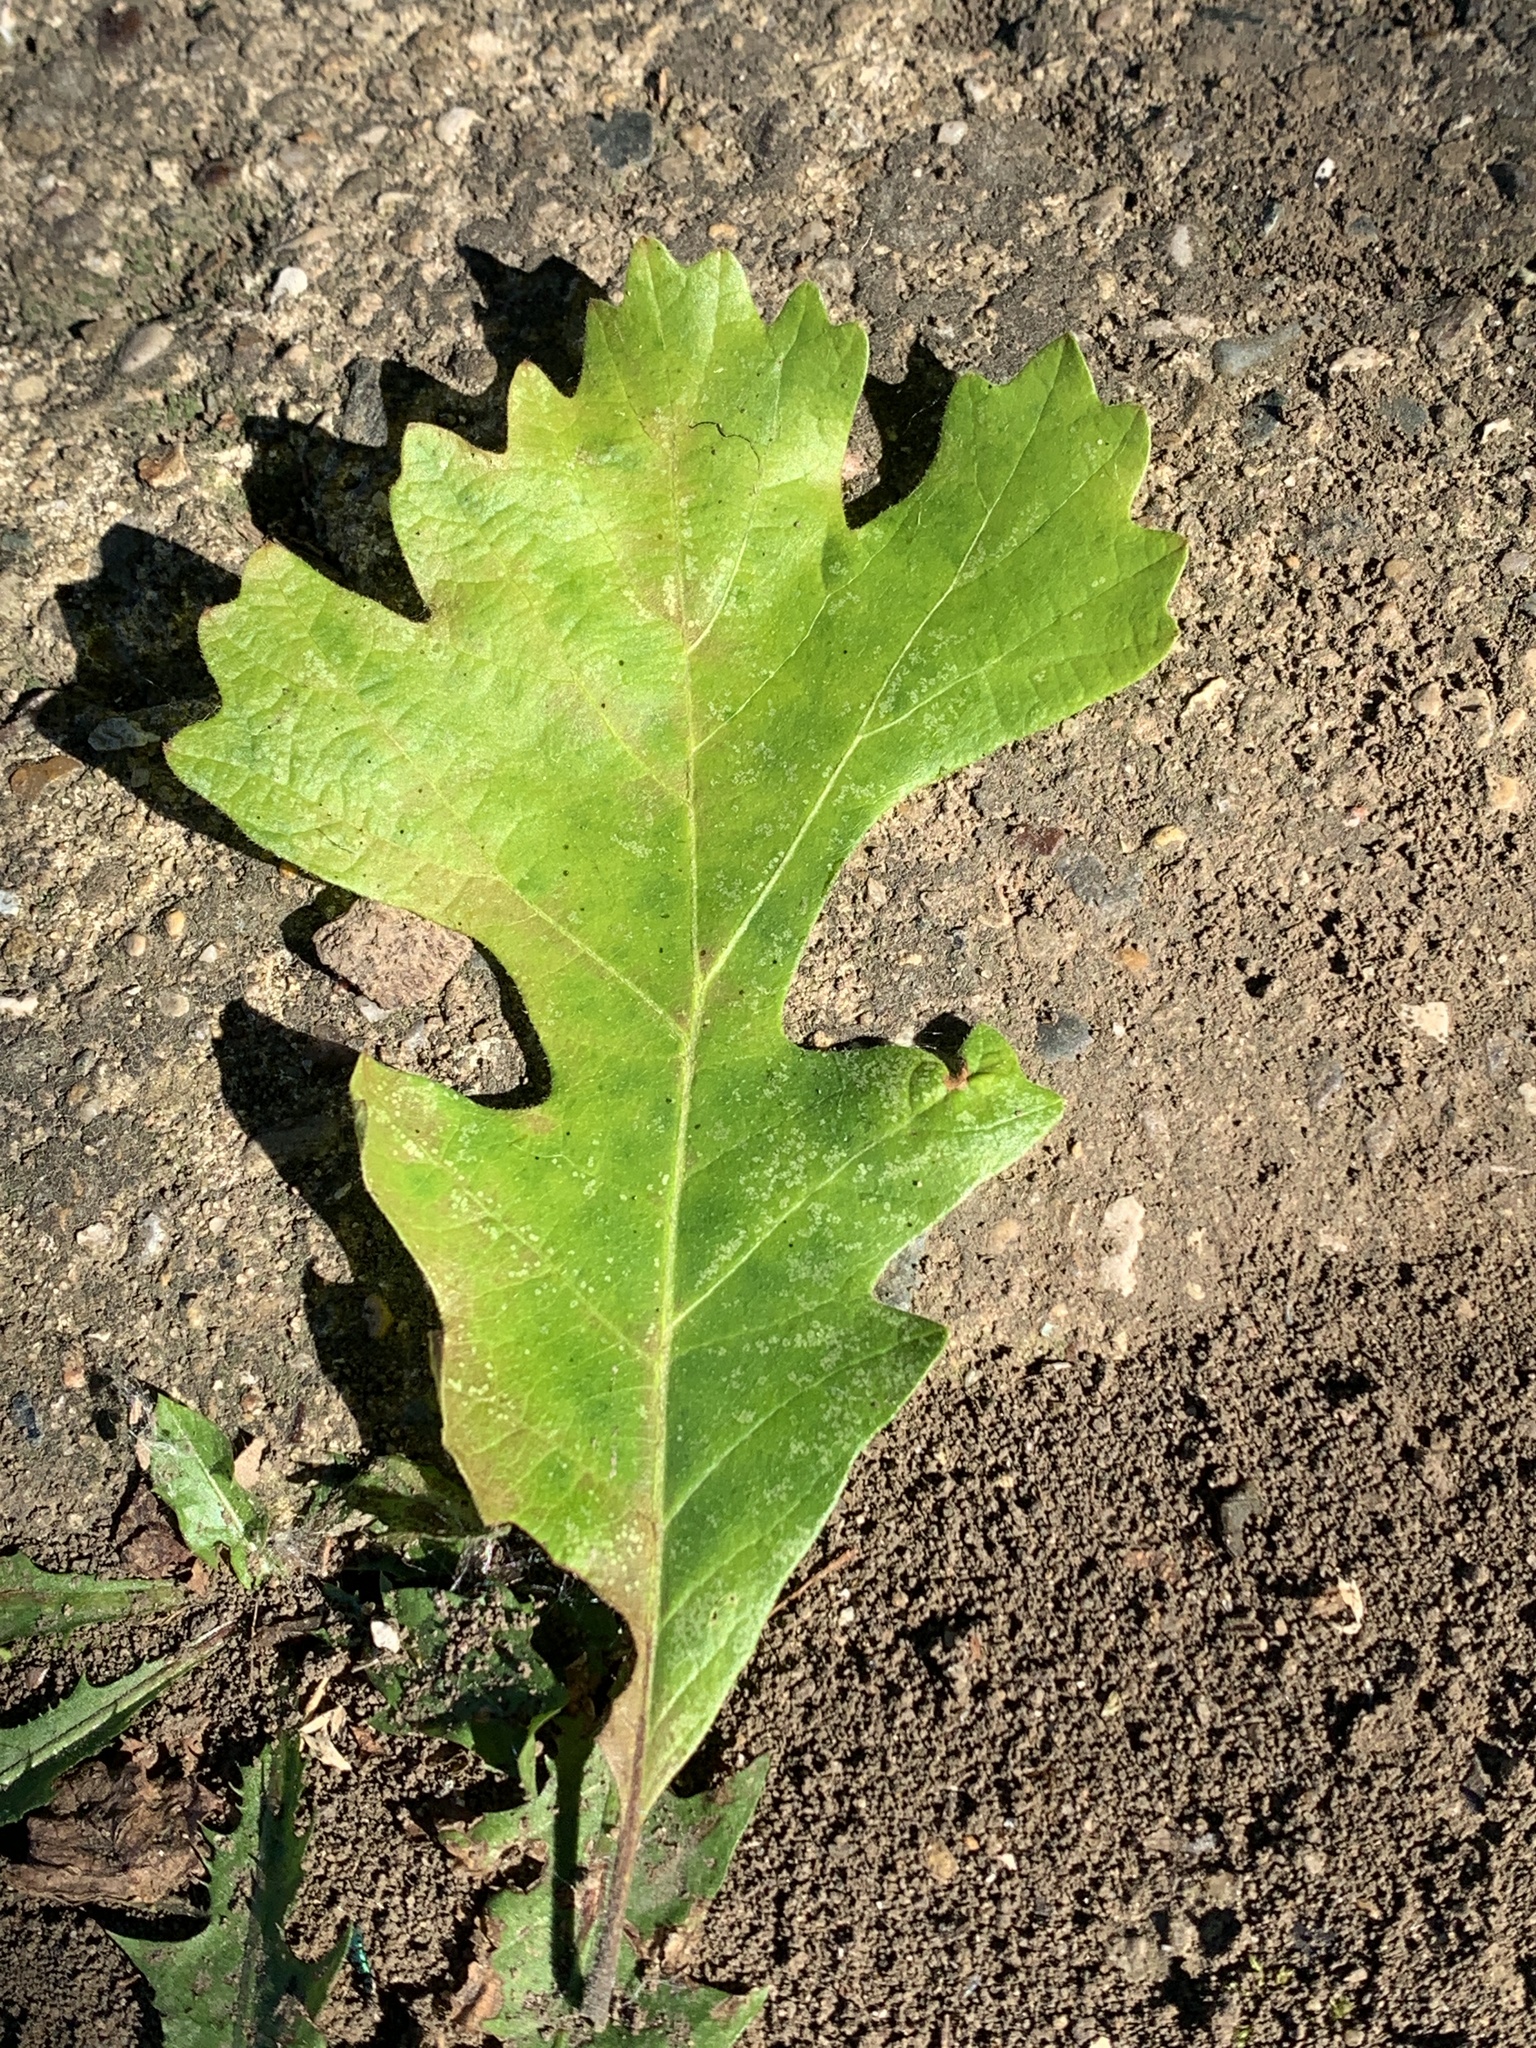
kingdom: Plantae
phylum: Tracheophyta
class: Magnoliopsida
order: Fagales
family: Fagaceae
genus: Quercus
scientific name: Quercus macrocarpa
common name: Bur oak
